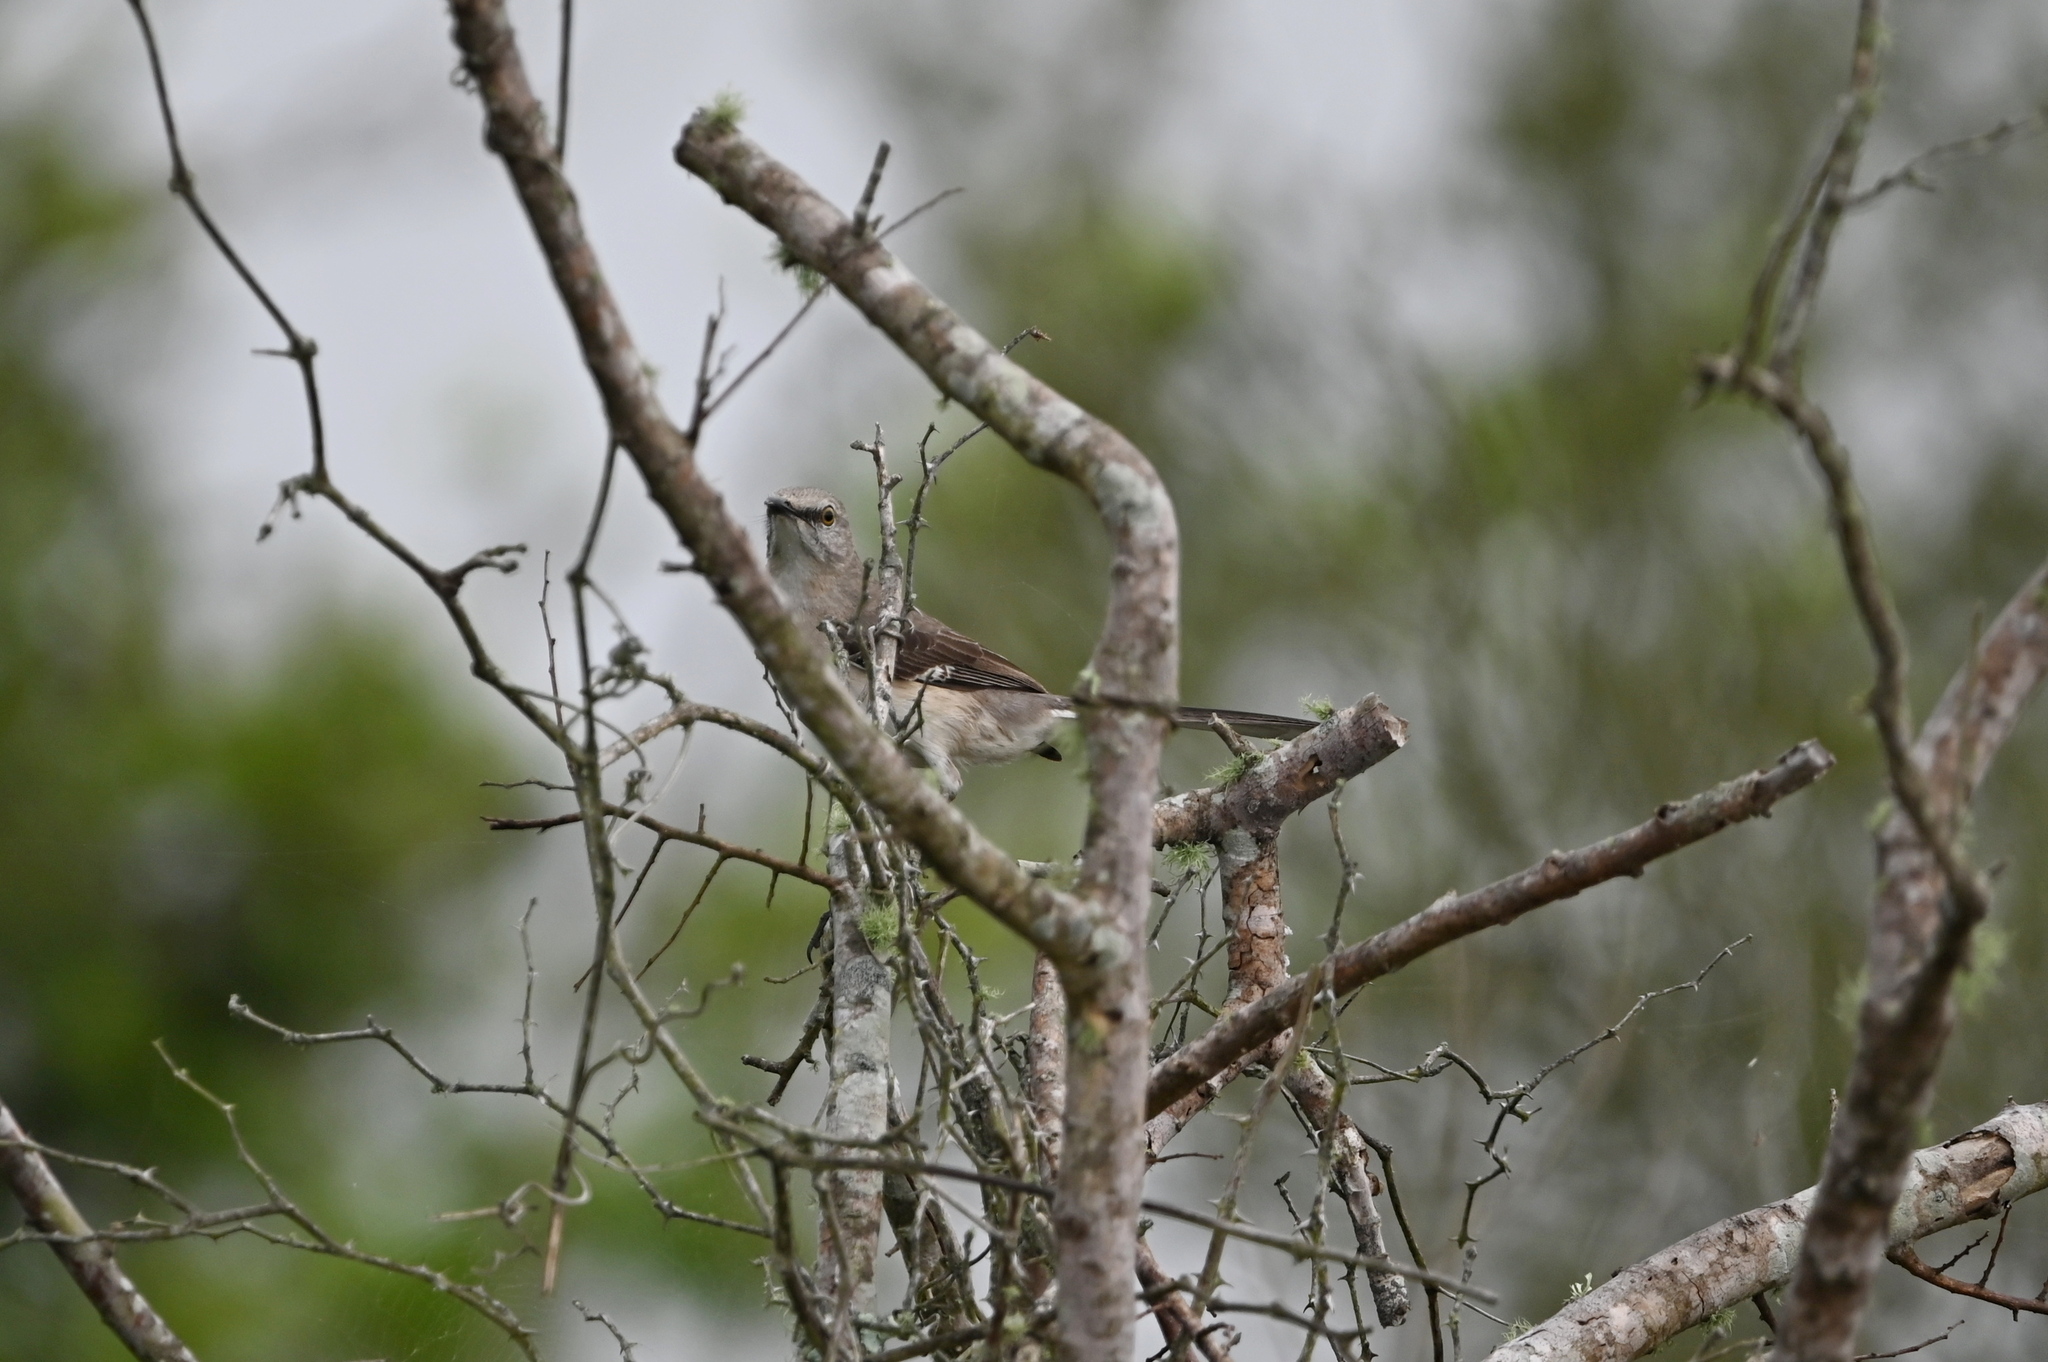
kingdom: Animalia
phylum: Chordata
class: Aves
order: Passeriformes
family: Mimidae
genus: Mimus
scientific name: Mimus polyglottos
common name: Northern mockingbird
